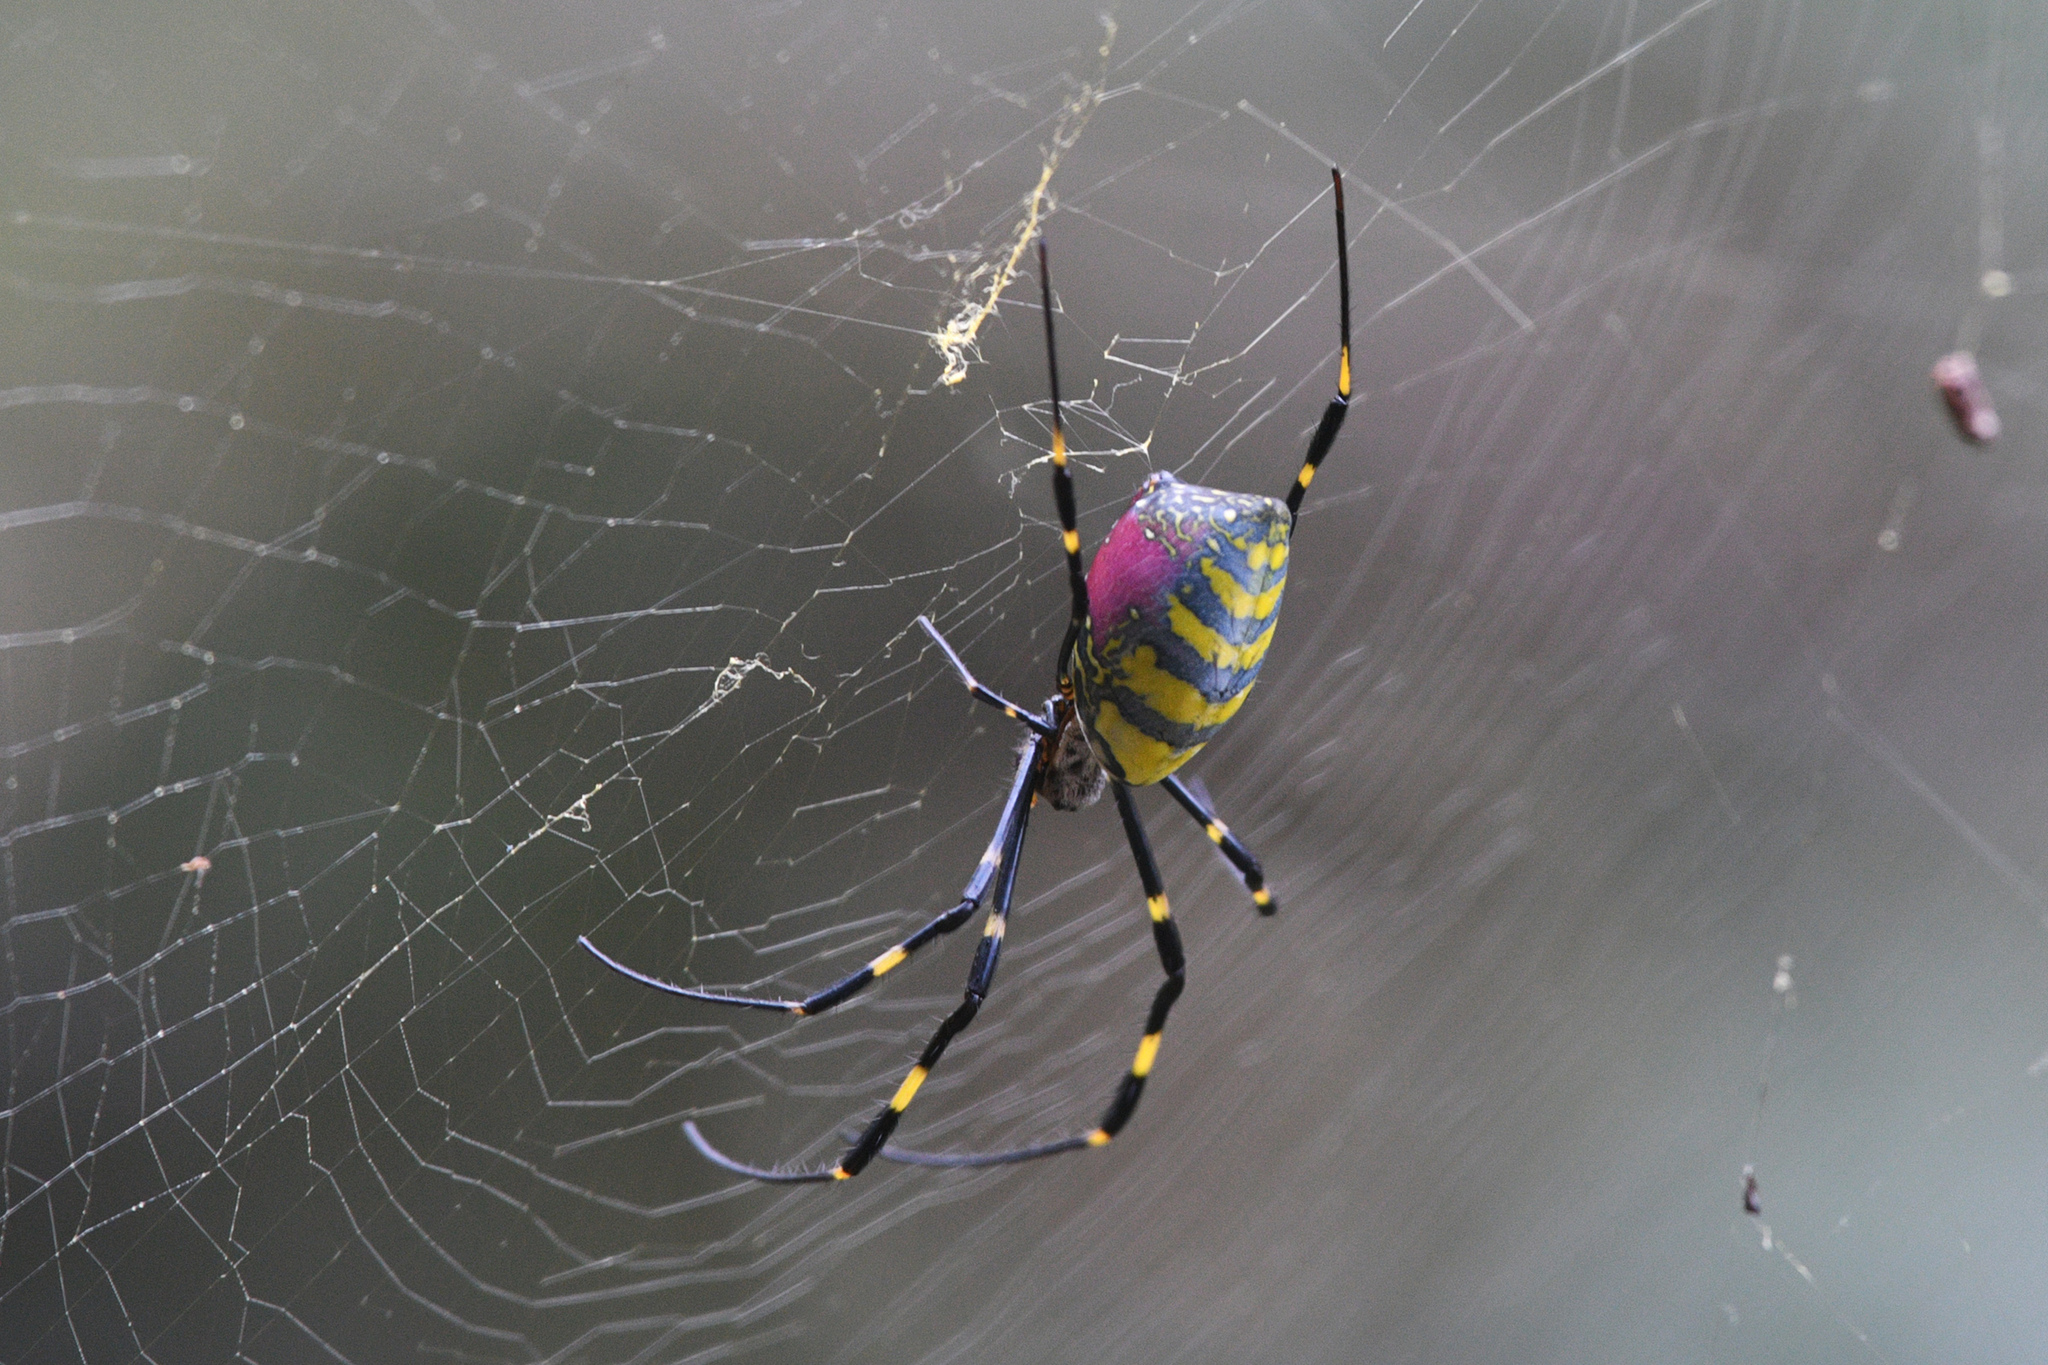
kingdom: Animalia
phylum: Arthropoda
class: Arachnida
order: Araneae
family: Araneidae
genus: Trichonephila
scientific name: Trichonephila clavata
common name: Jorō spider
